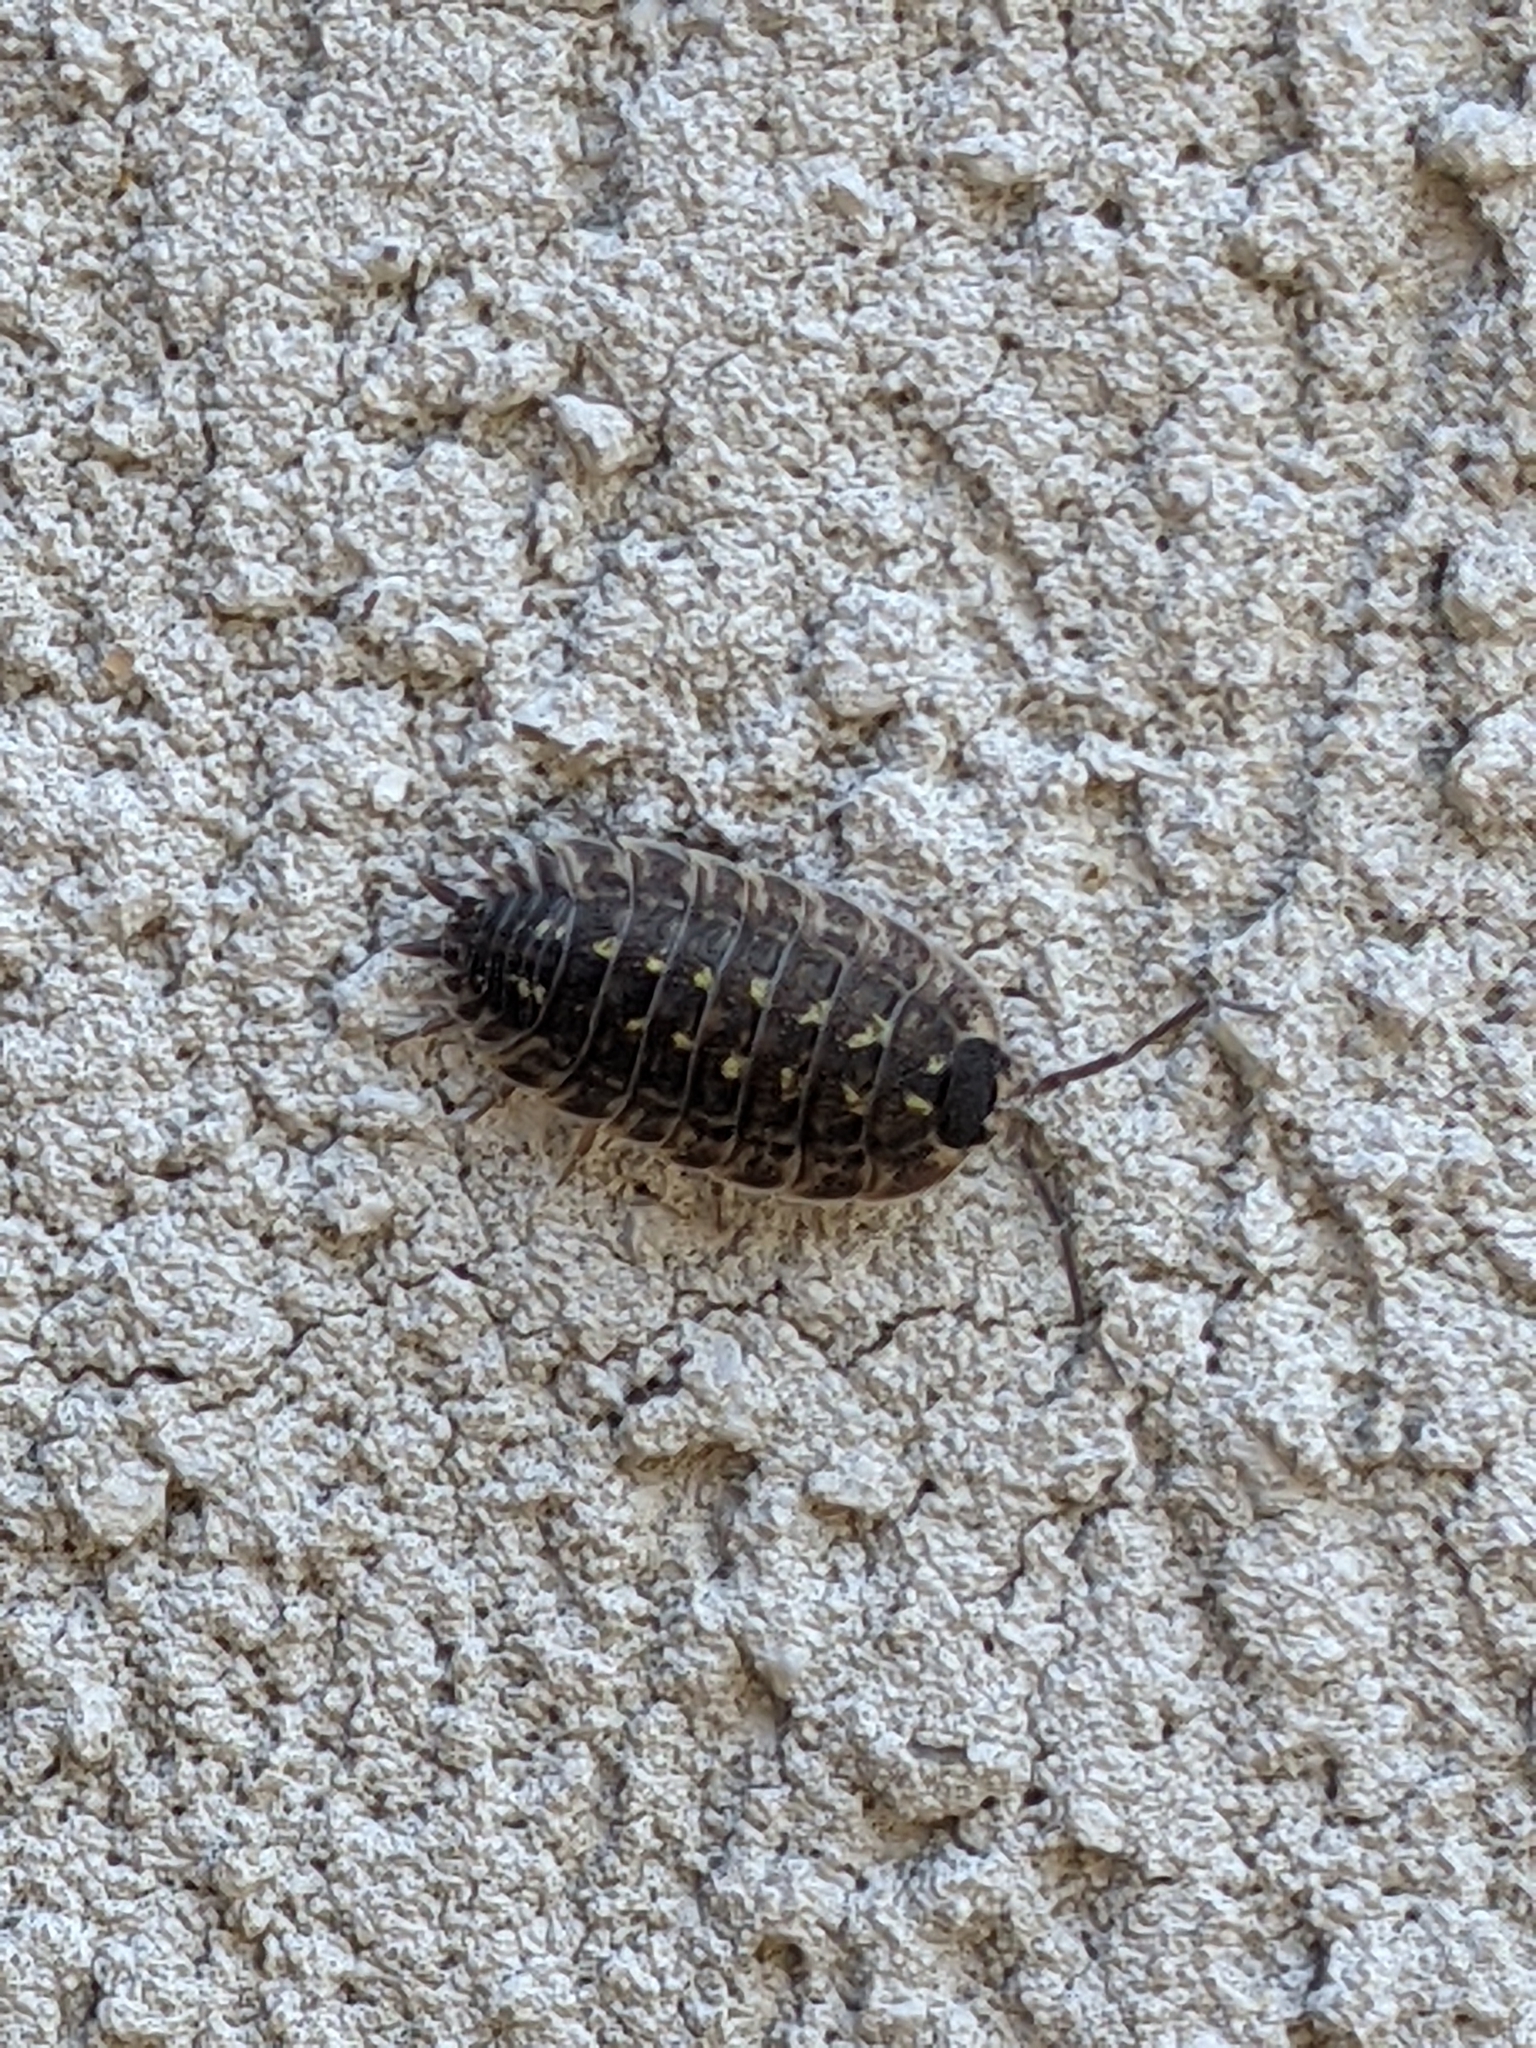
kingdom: Animalia
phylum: Arthropoda
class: Malacostraca
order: Isopoda
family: Porcellionidae
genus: Porcellio
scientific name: Porcellio spinicornis
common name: Painted woodlouse
